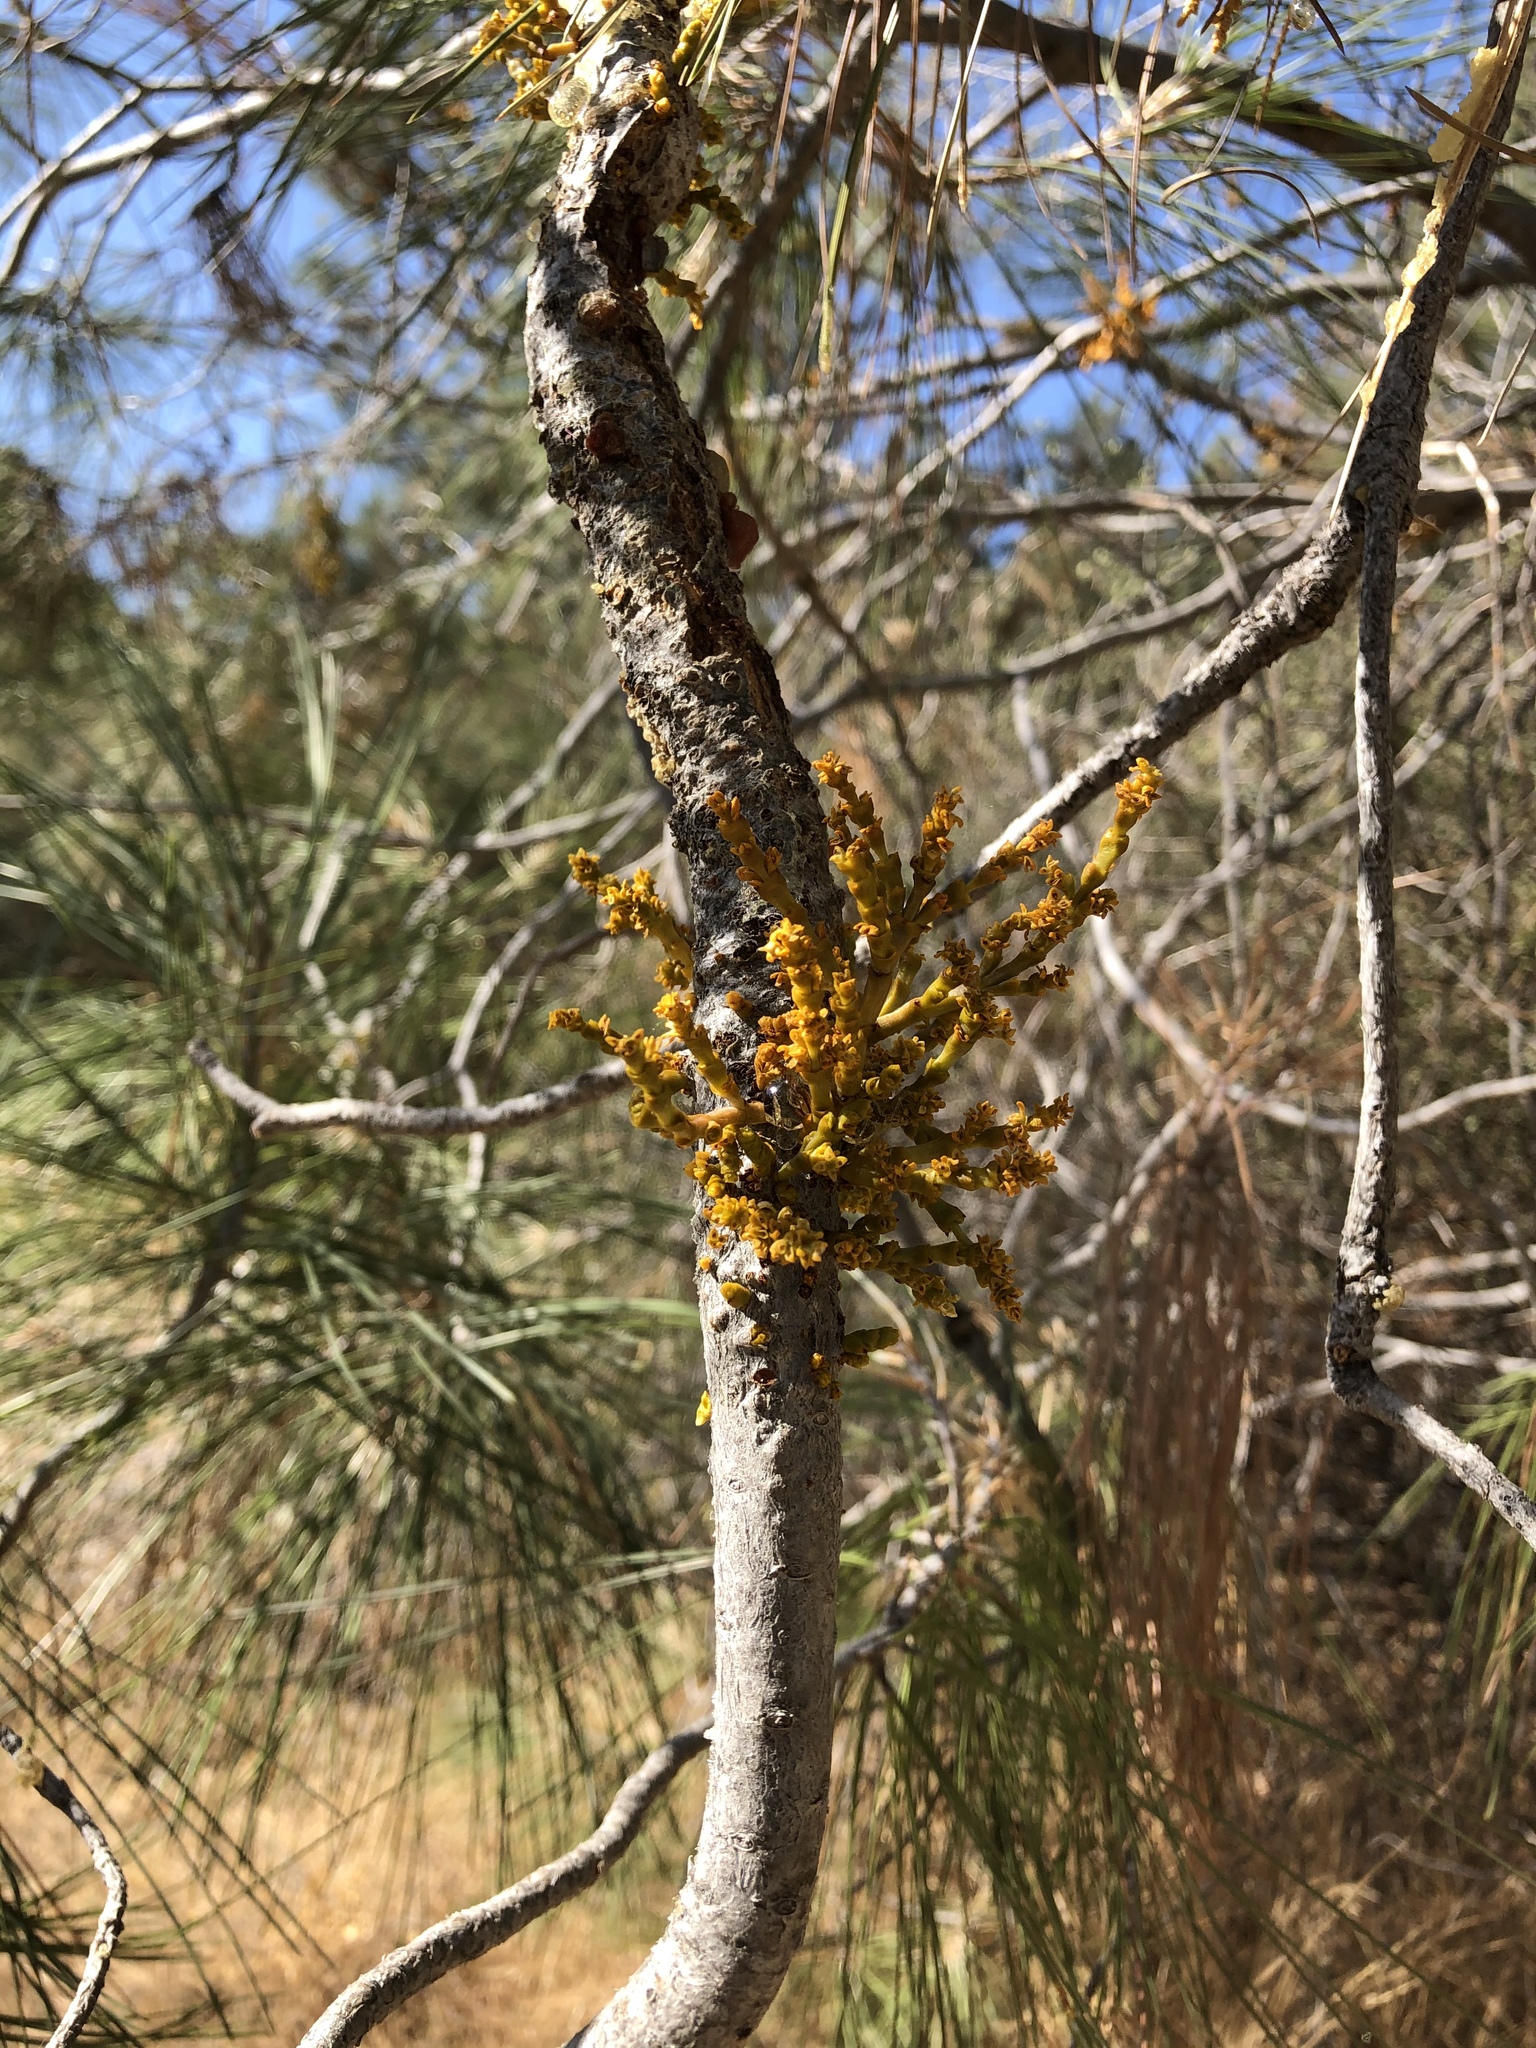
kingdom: Plantae
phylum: Tracheophyta
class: Magnoliopsida
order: Santalales
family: Viscaceae
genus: Arceuthobium
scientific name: Arceuthobium campylopodum
